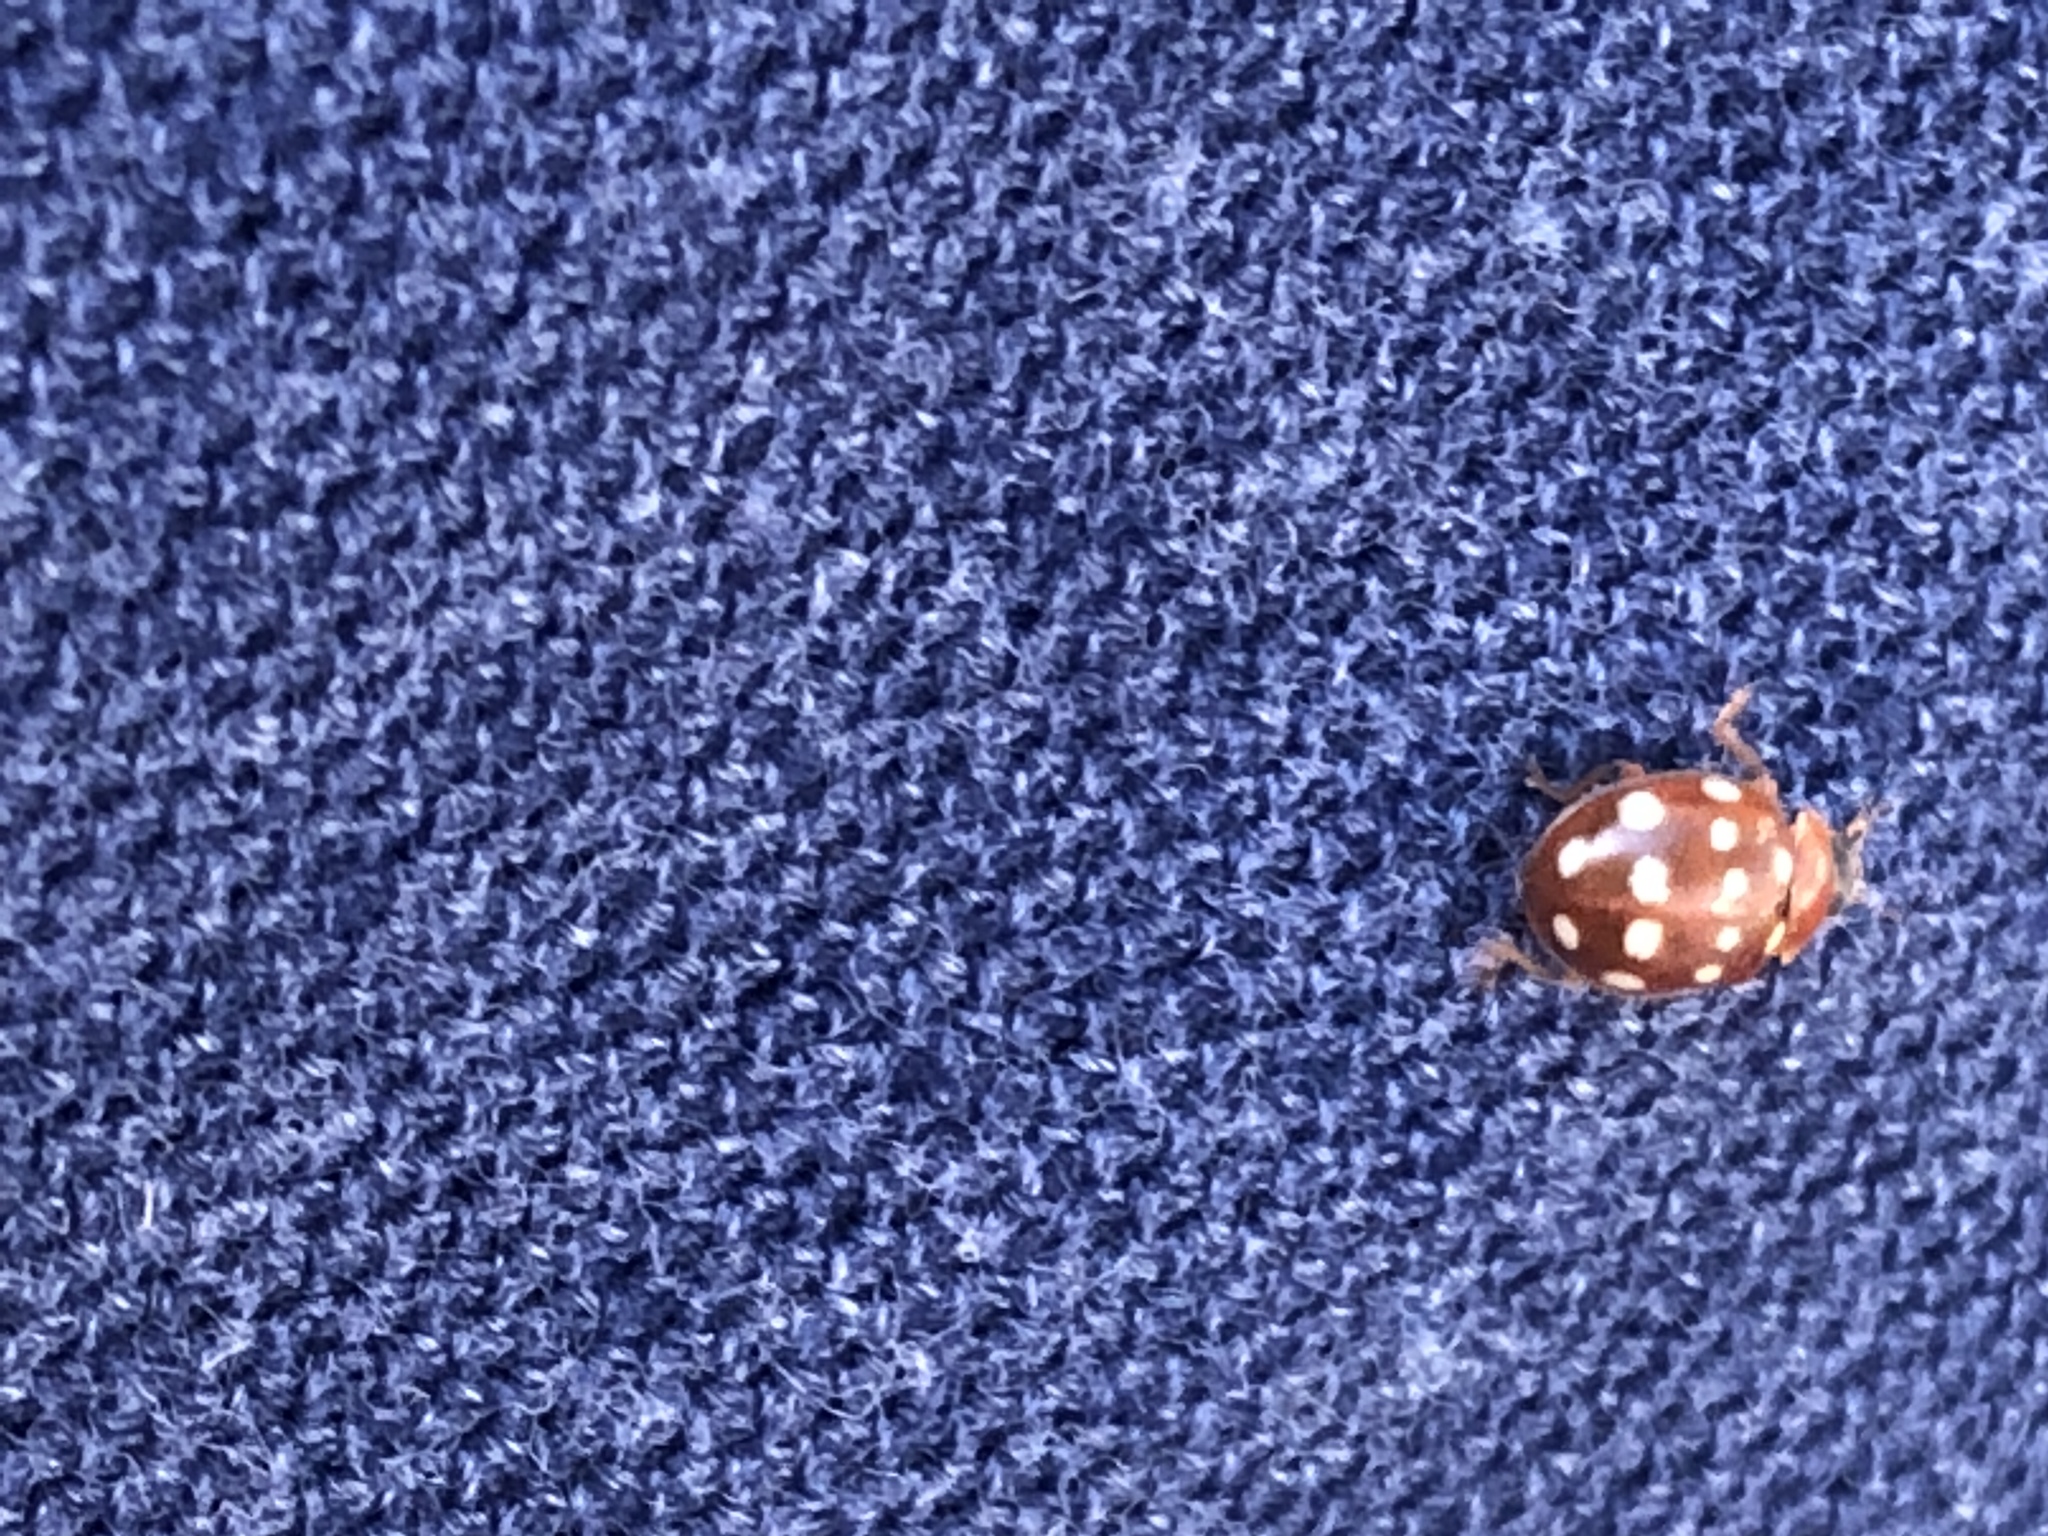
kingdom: Animalia
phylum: Arthropoda
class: Insecta
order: Coleoptera
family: Coccinellidae
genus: Calvia
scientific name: Calvia quatuordecimguttata
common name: Cream-spot ladybird
